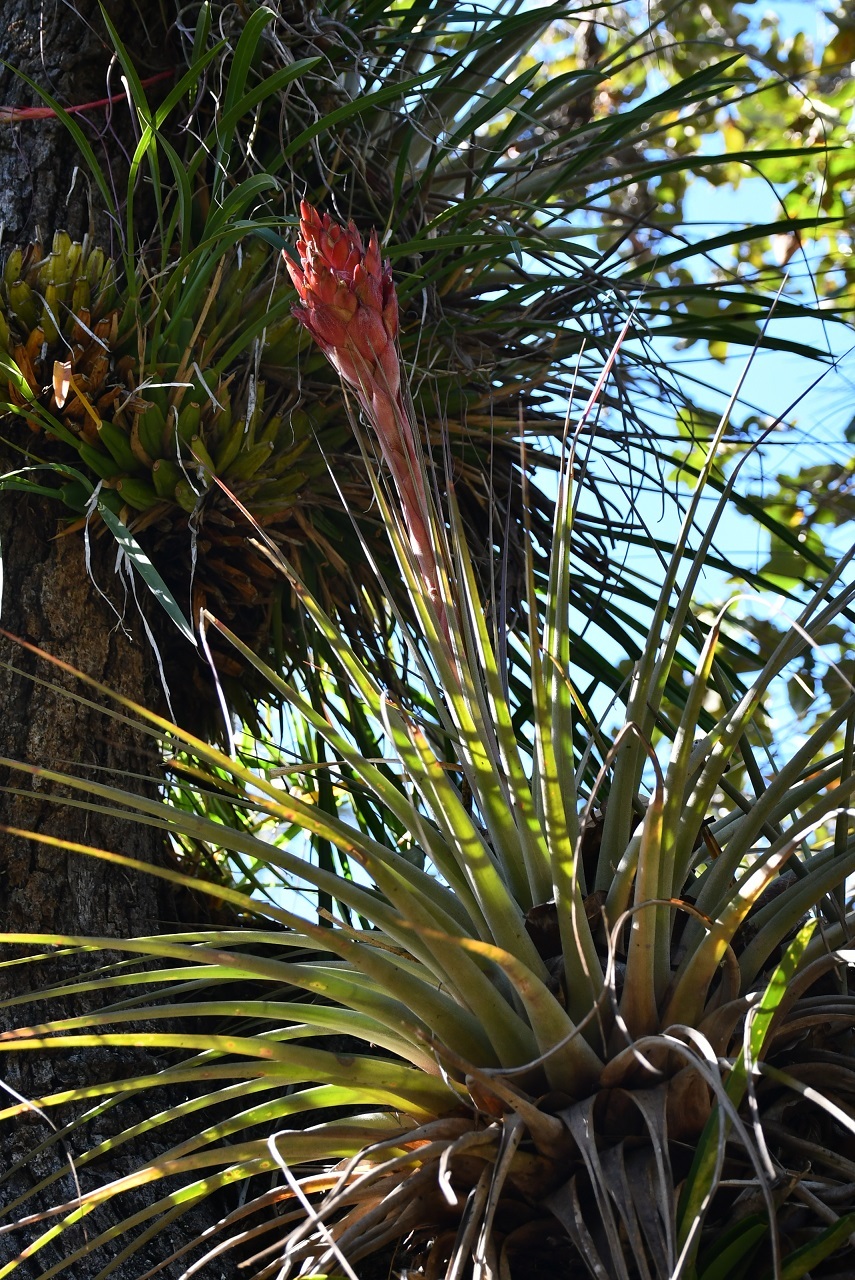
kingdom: Plantae
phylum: Tracheophyta
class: Liliopsida
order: Poales
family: Bromeliaceae
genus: Tillandsia
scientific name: Tillandsia rotundata
